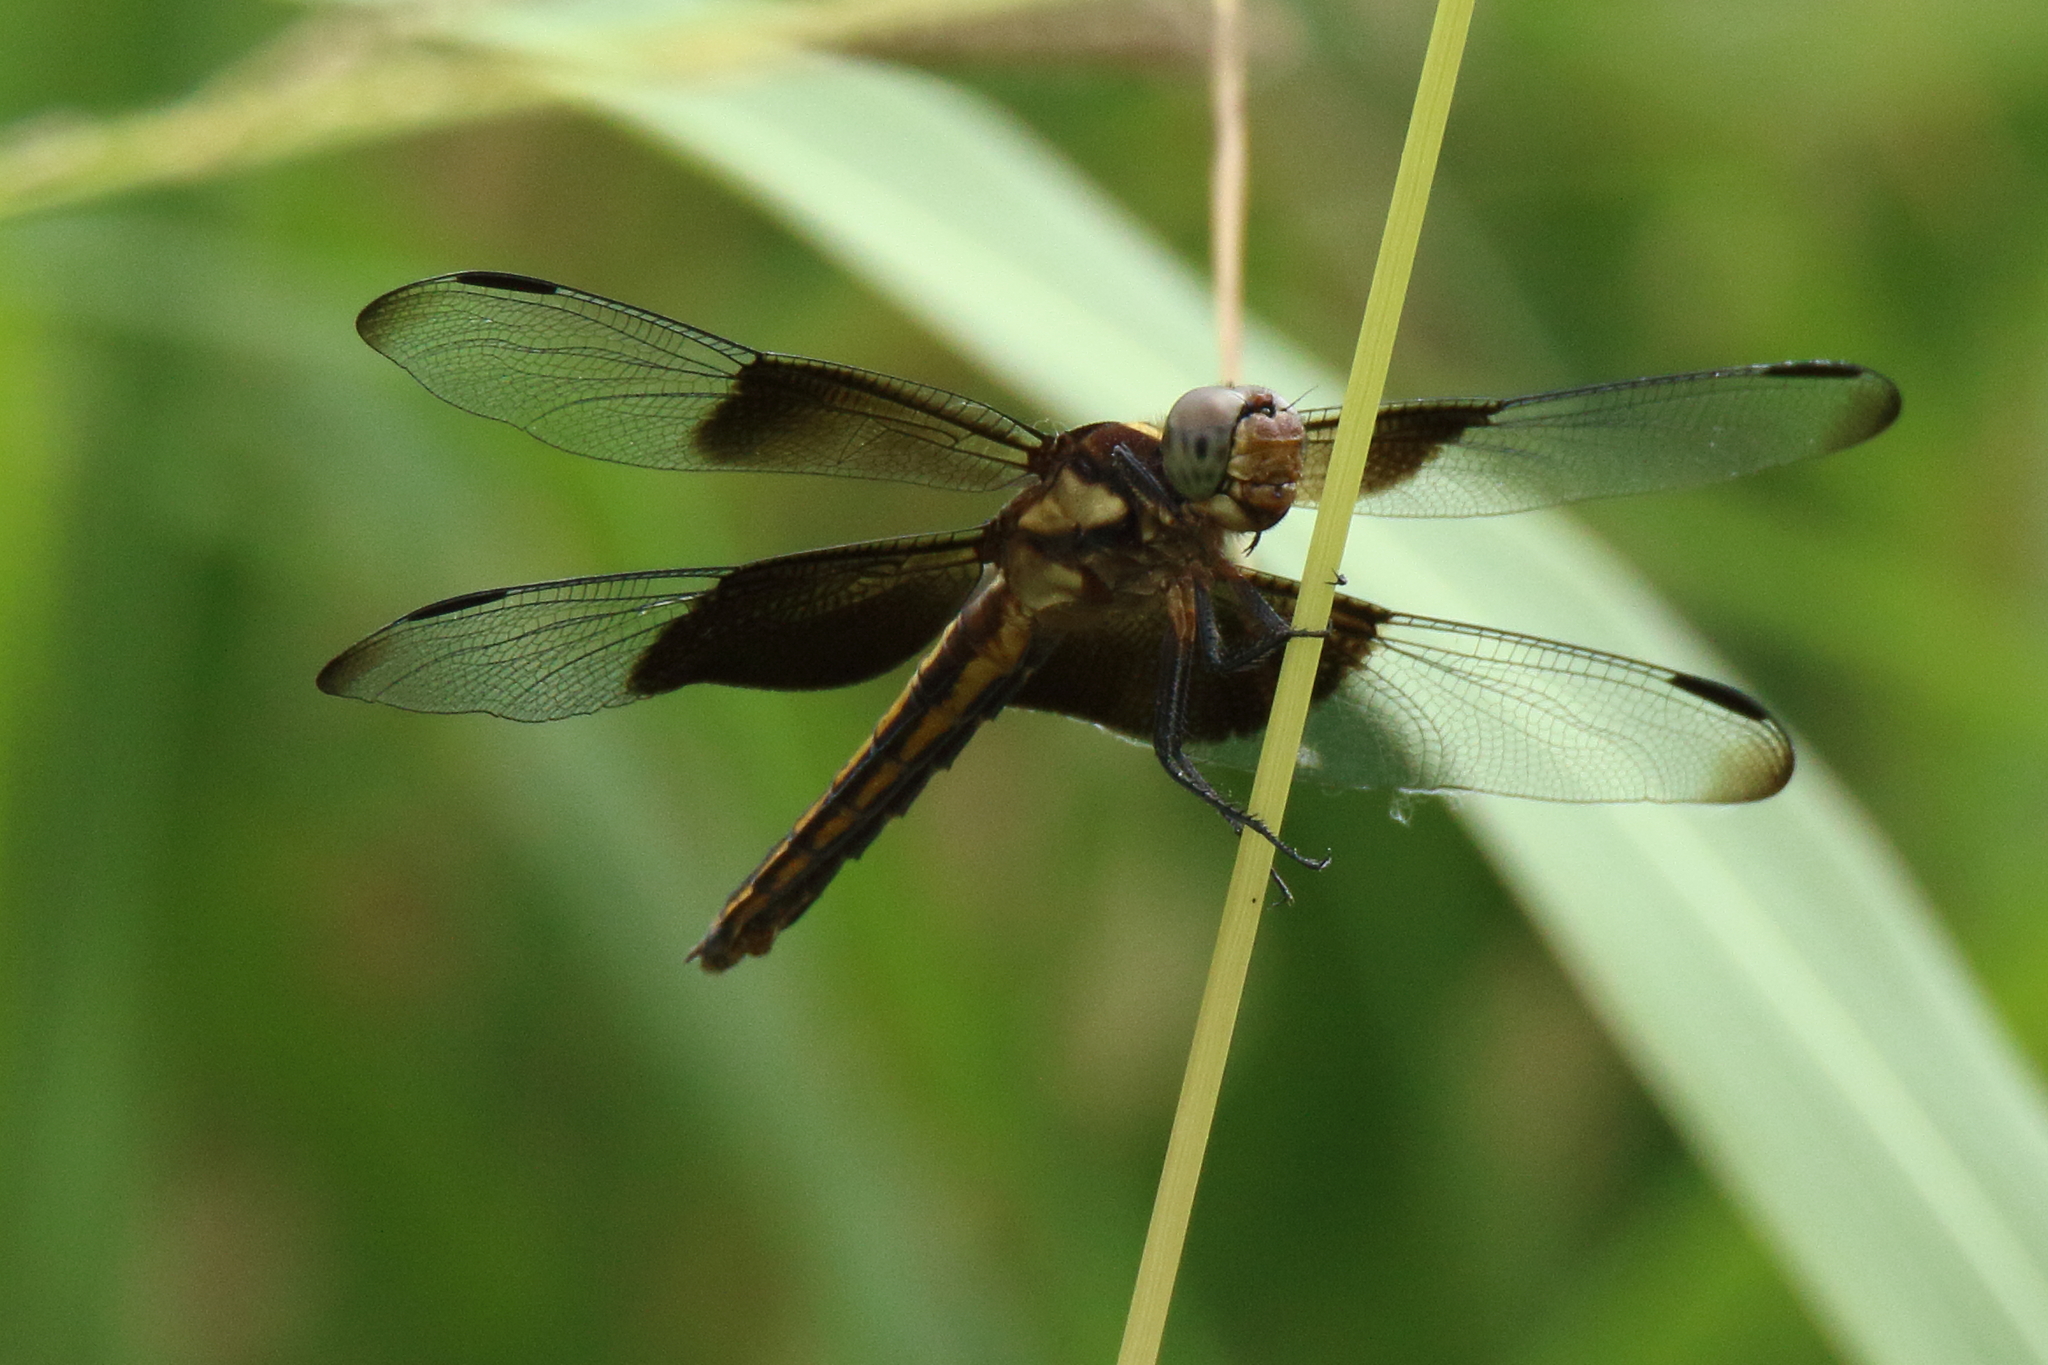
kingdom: Animalia
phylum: Arthropoda
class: Insecta
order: Odonata
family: Libellulidae
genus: Libellula
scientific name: Libellula luctuosa
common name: Widow skimmer
